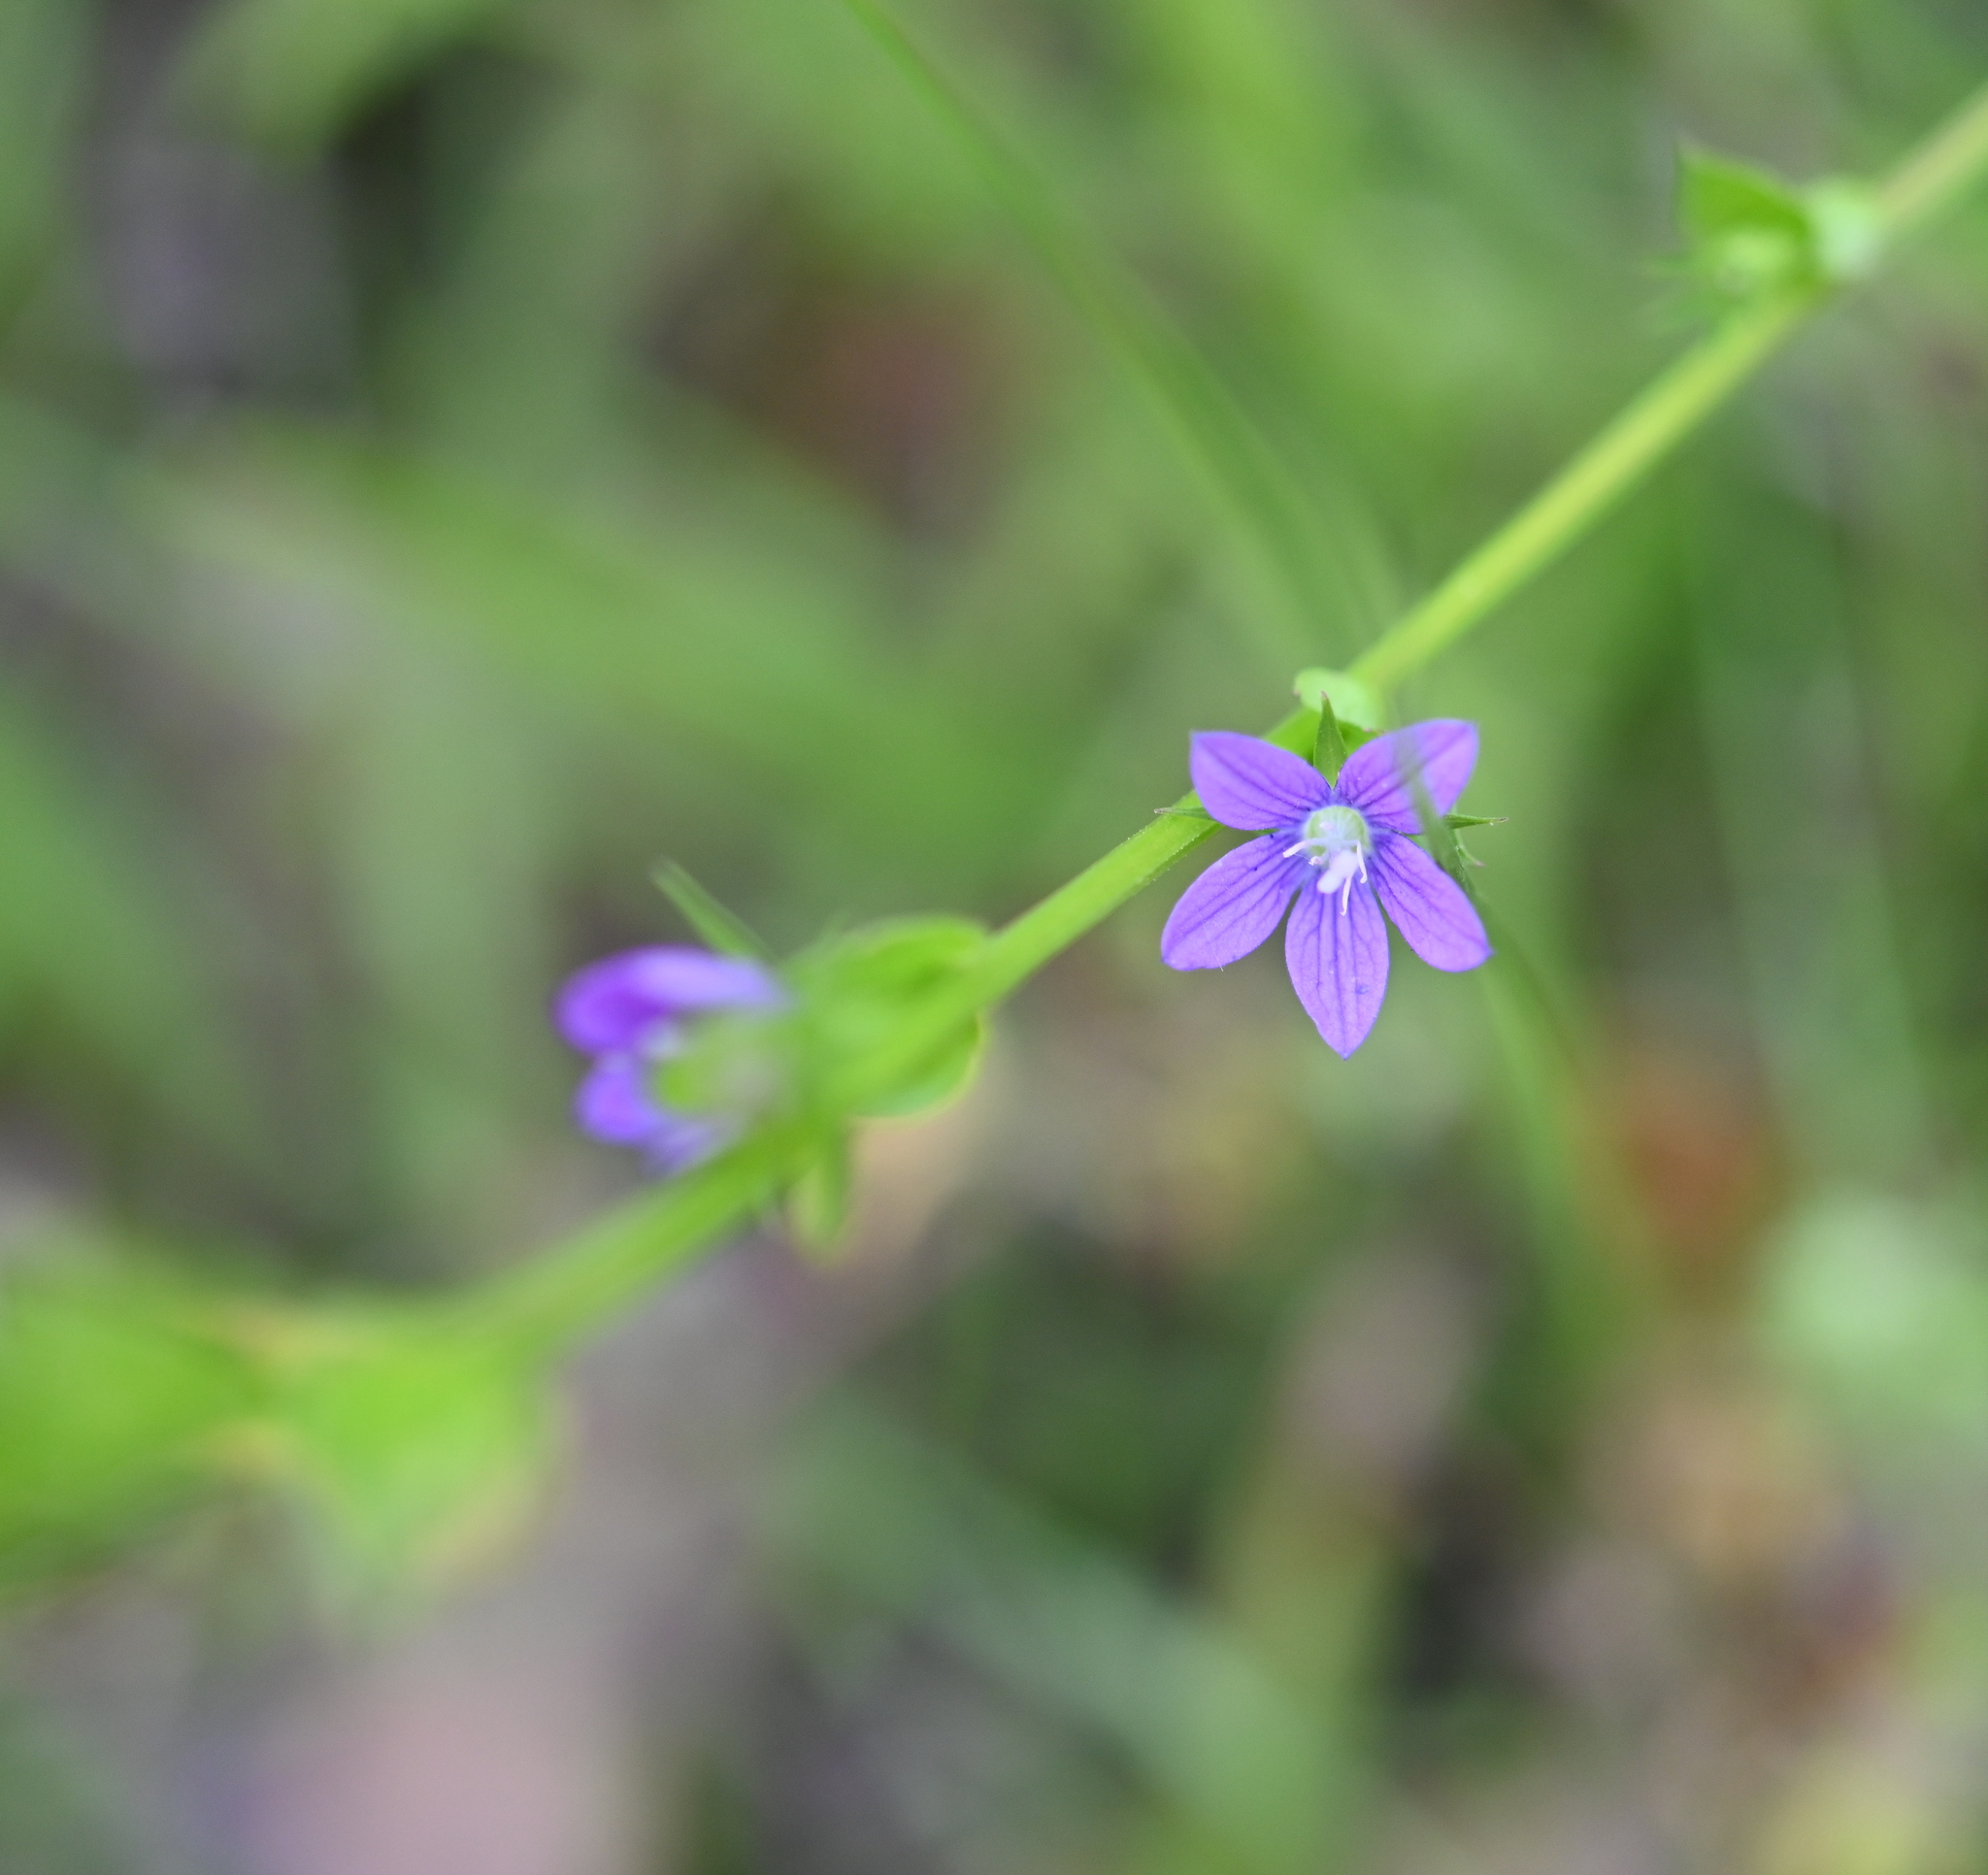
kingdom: Plantae
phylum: Tracheophyta
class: Magnoliopsida
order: Asterales
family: Campanulaceae
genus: Triodanis
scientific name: Triodanis perfoliata
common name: Clasping venus' looking-glass
